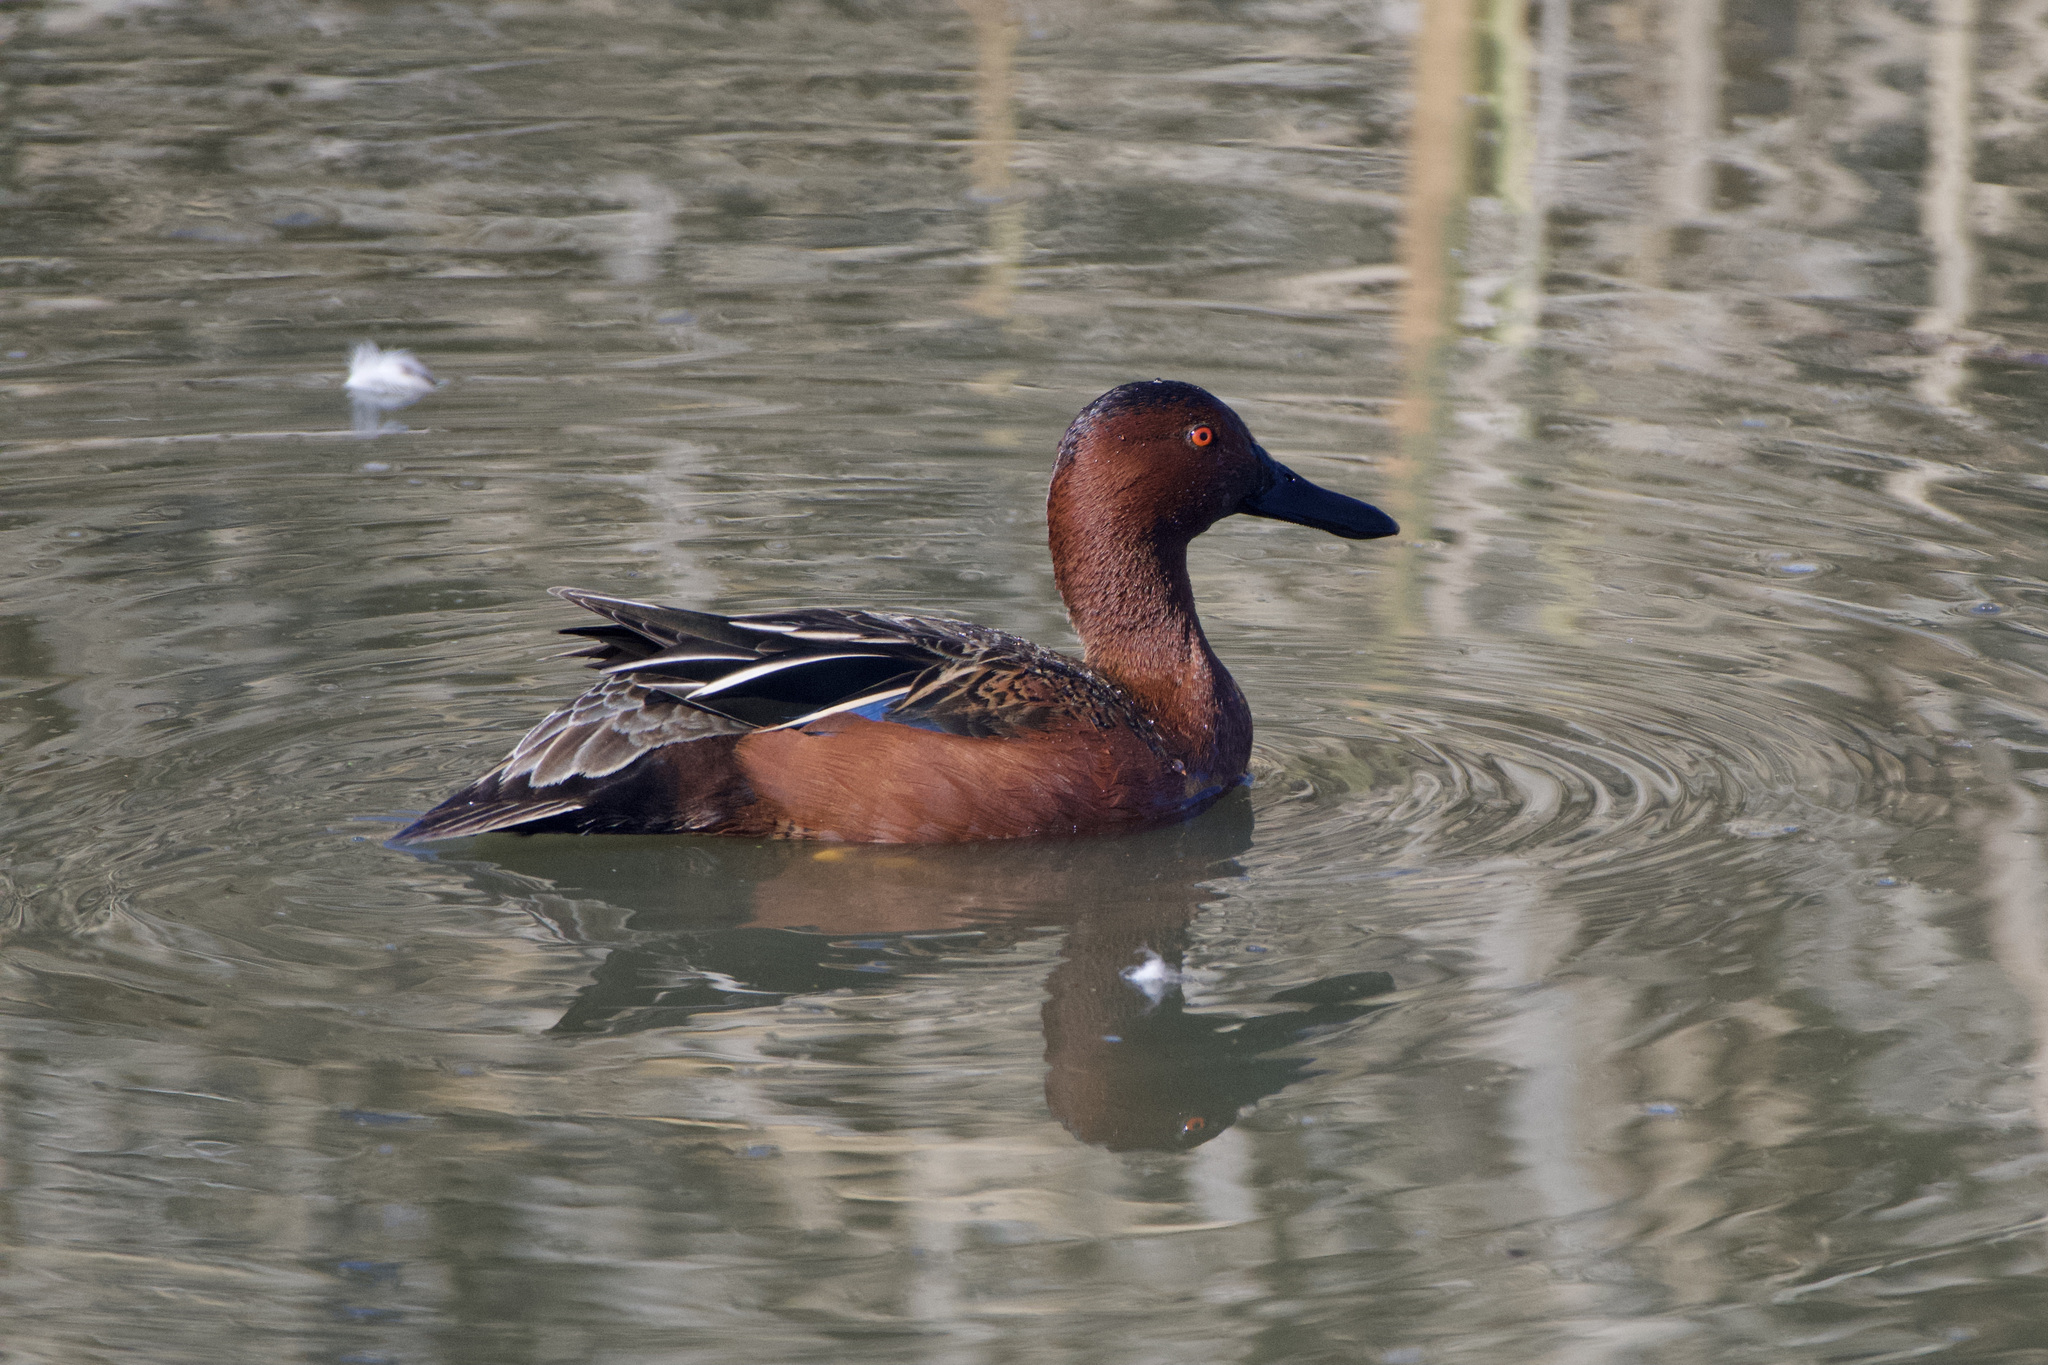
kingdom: Animalia
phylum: Chordata
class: Aves
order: Anseriformes
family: Anatidae
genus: Spatula
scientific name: Spatula cyanoptera
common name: Cinnamon teal
